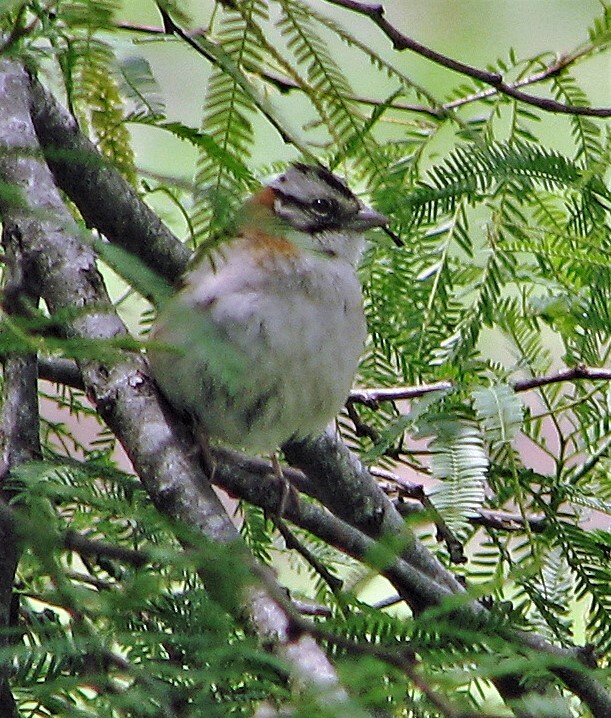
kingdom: Animalia
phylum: Chordata
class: Aves
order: Passeriformes
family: Passerellidae
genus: Zonotrichia
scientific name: Zonotrichia capensis
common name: Rufous-collared sparrow
